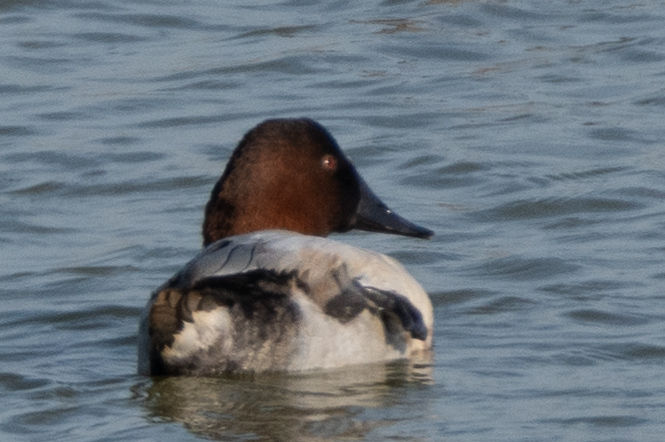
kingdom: Animalia
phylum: Chordata
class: Aves
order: Anseriformes
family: Anatidae
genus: Aythya
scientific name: Aythya valisineria
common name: Canvasback
